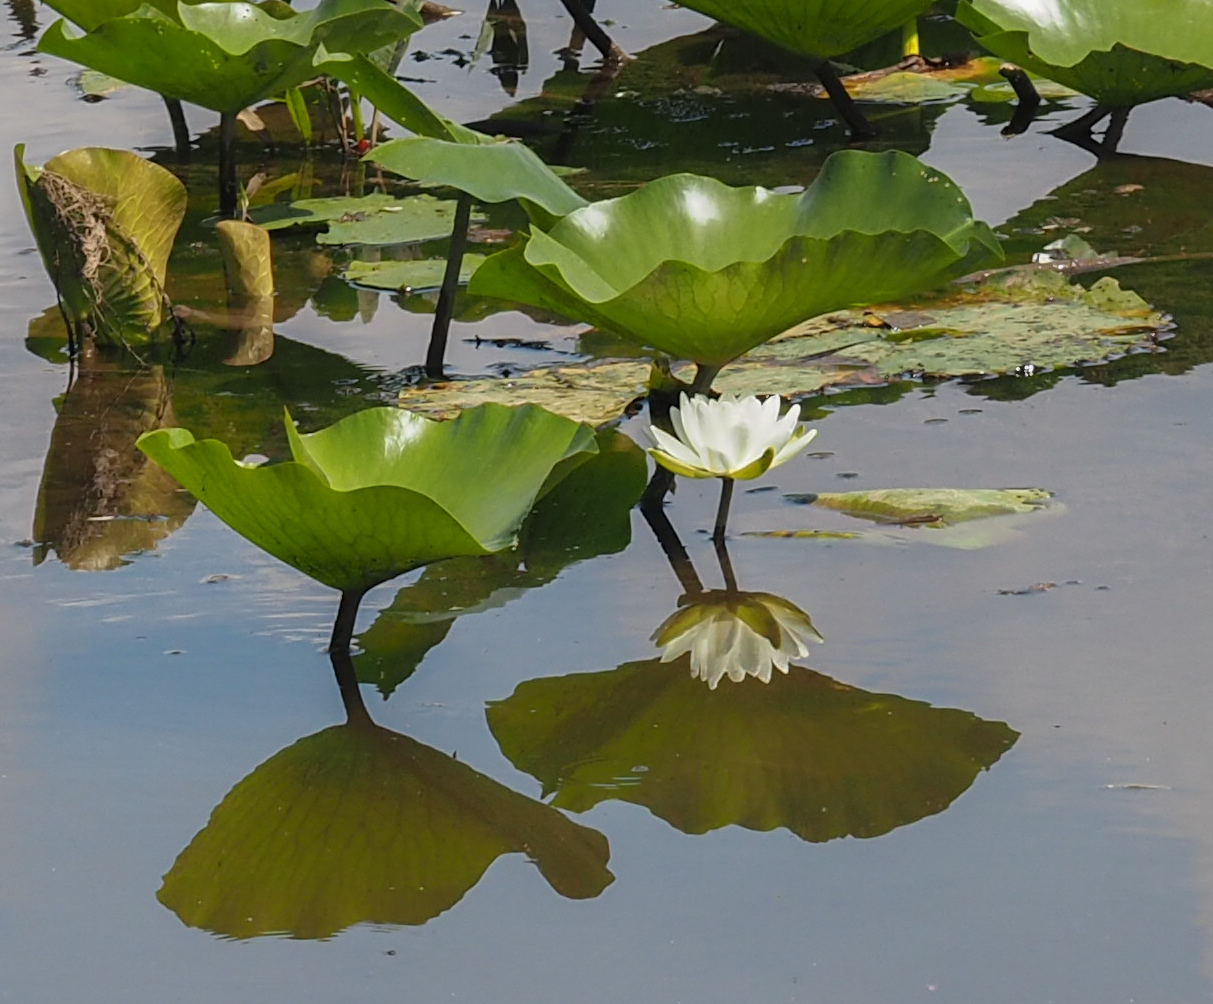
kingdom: Plantae
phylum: Tracheophyta
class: Magnoliopsida
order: Nymphaeales
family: Nymphaeaceae
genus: Nymphaea
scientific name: Nymphaea odorata
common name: Fragrant water-lily
